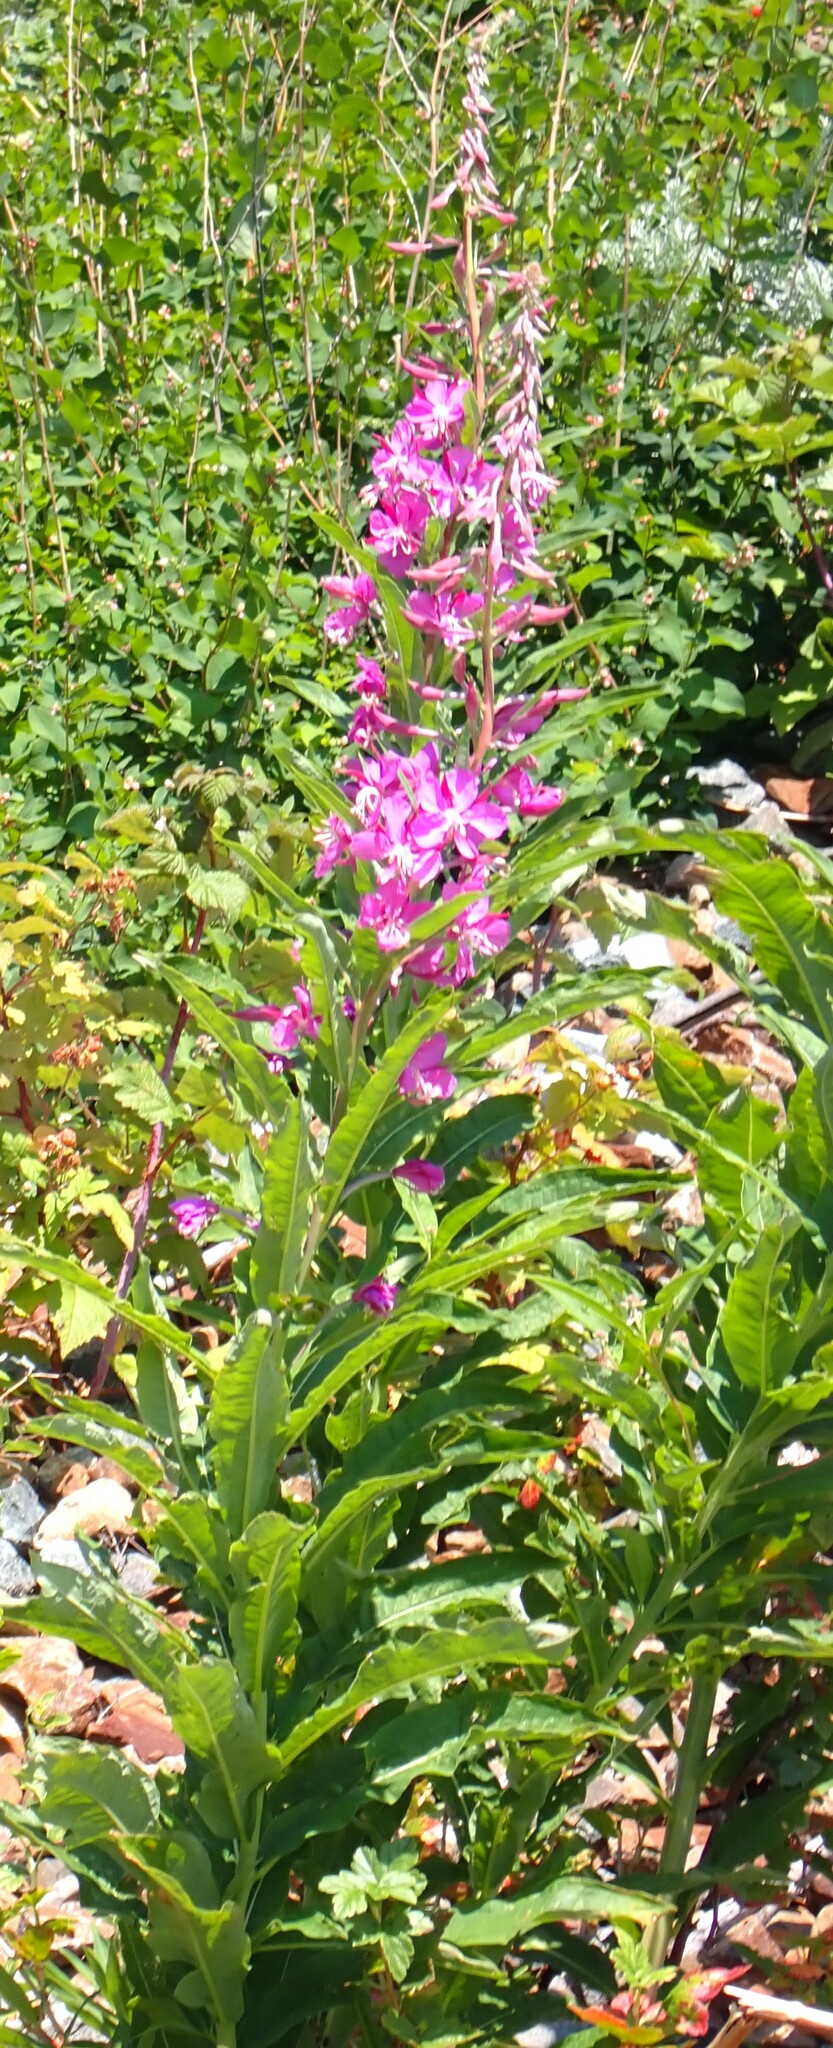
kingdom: Plantae
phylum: Tracheophyta
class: Magnoliopsida
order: Myrtales
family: Onagraceae
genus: Chamaenerion
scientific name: Chamaenerion angustifolium
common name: Fireweed
